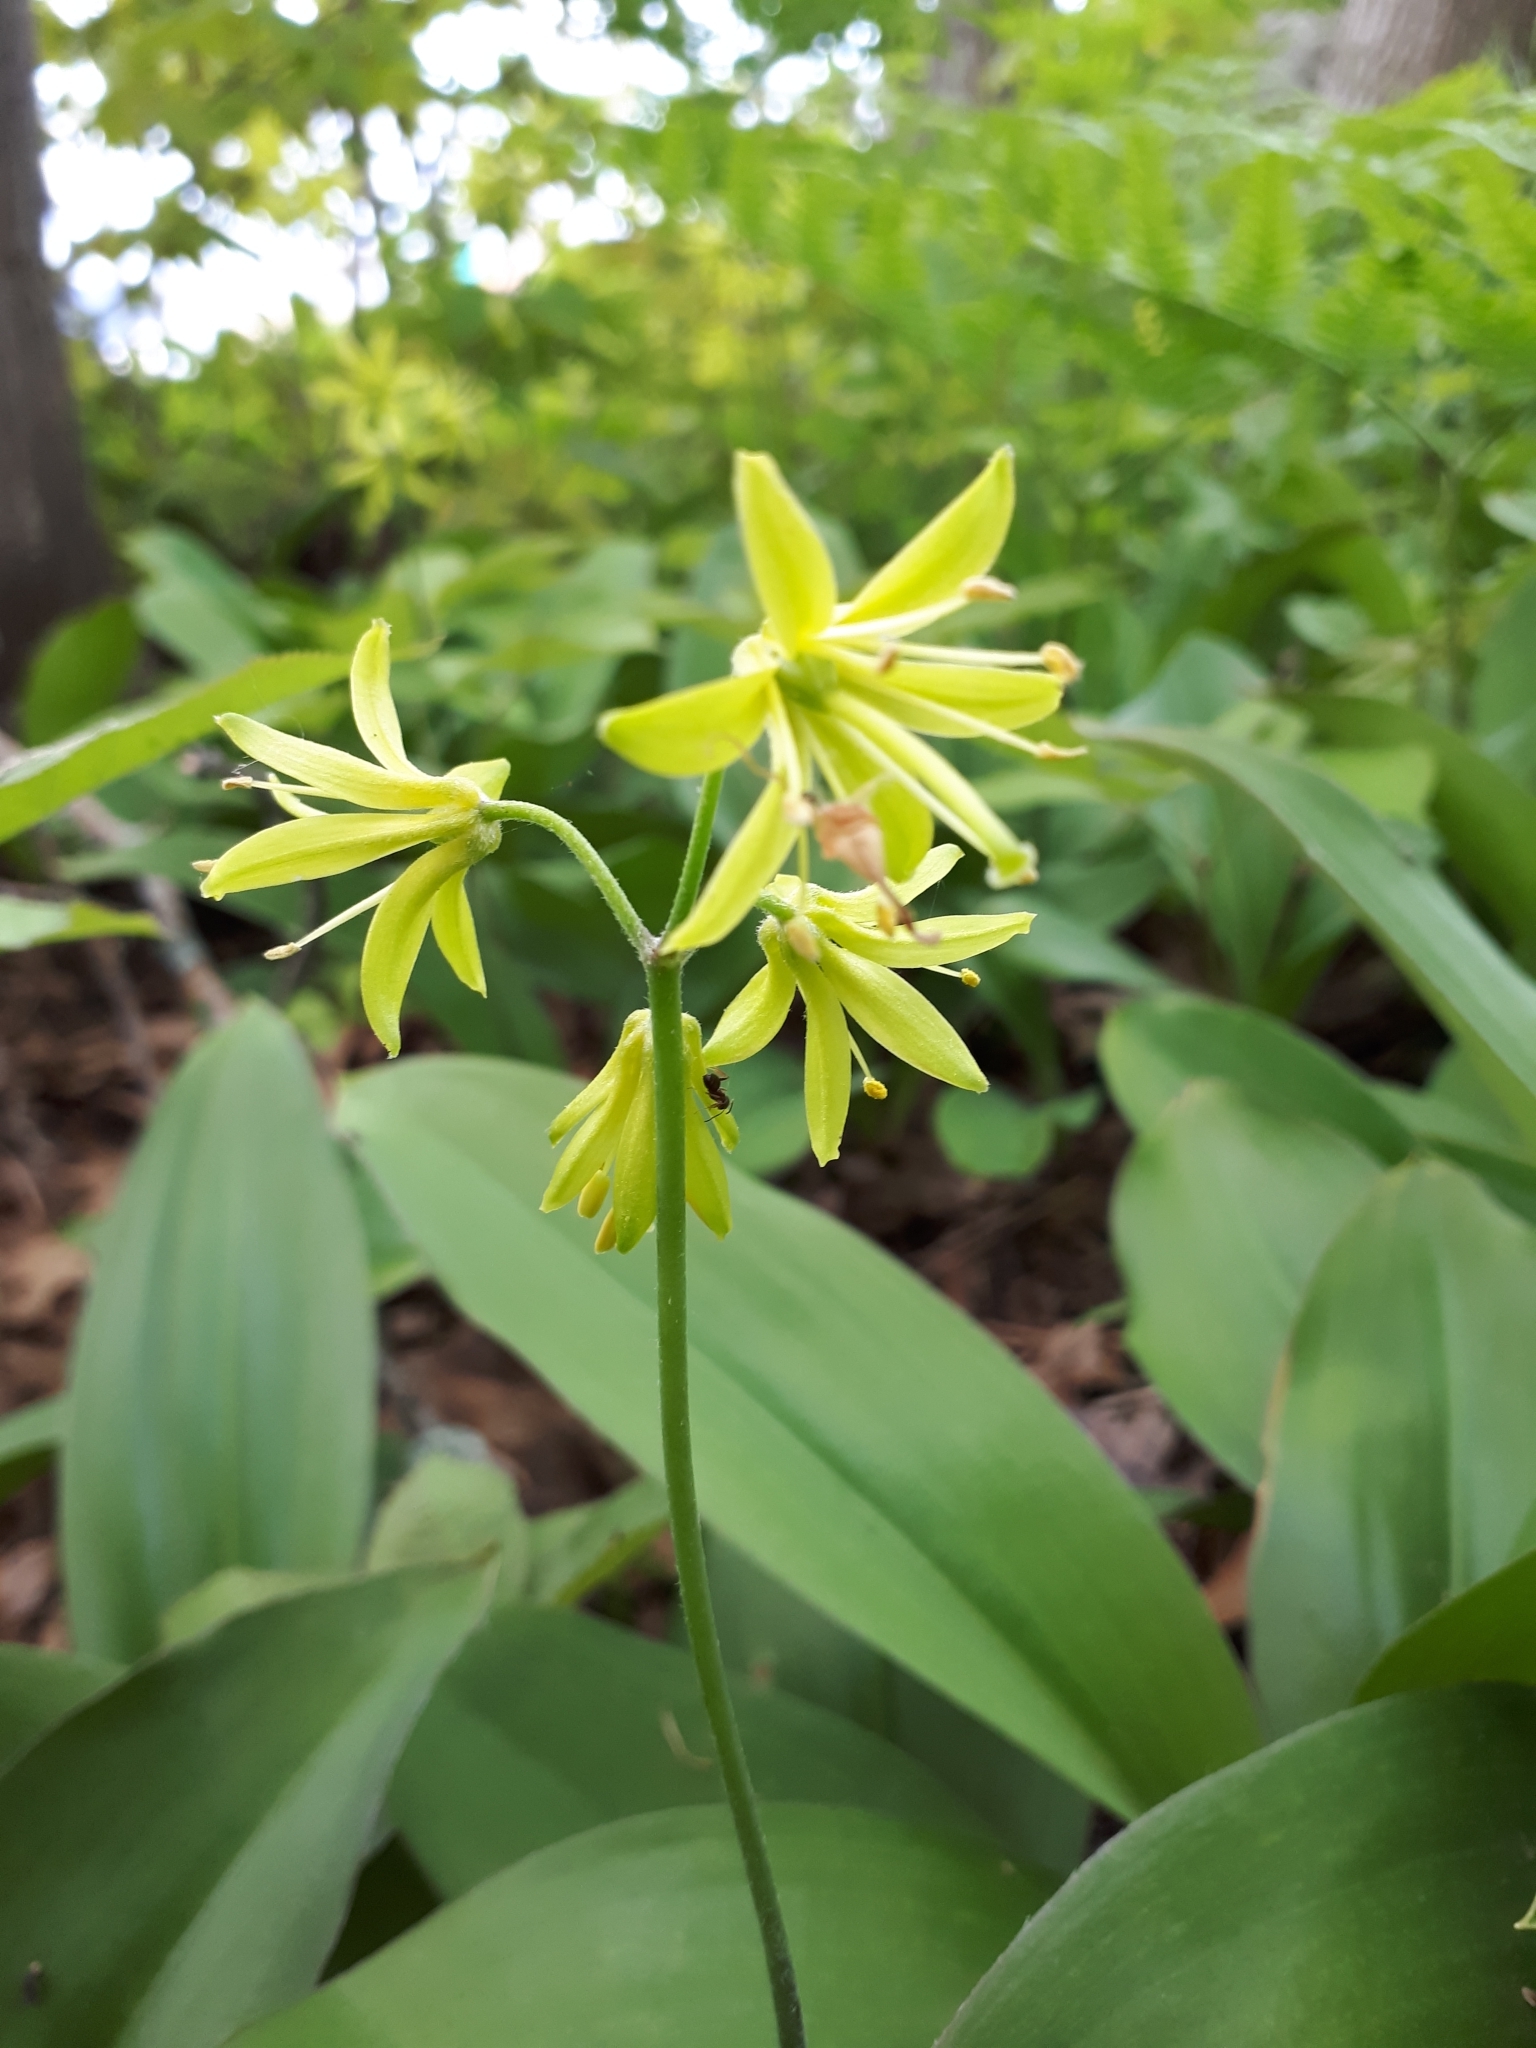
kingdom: Plantae
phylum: Tracheophyta
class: Liliopsida
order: Liliales
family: Liliaceae
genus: Clintonia
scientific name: Clintonia borealis
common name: Yellow clintonia
